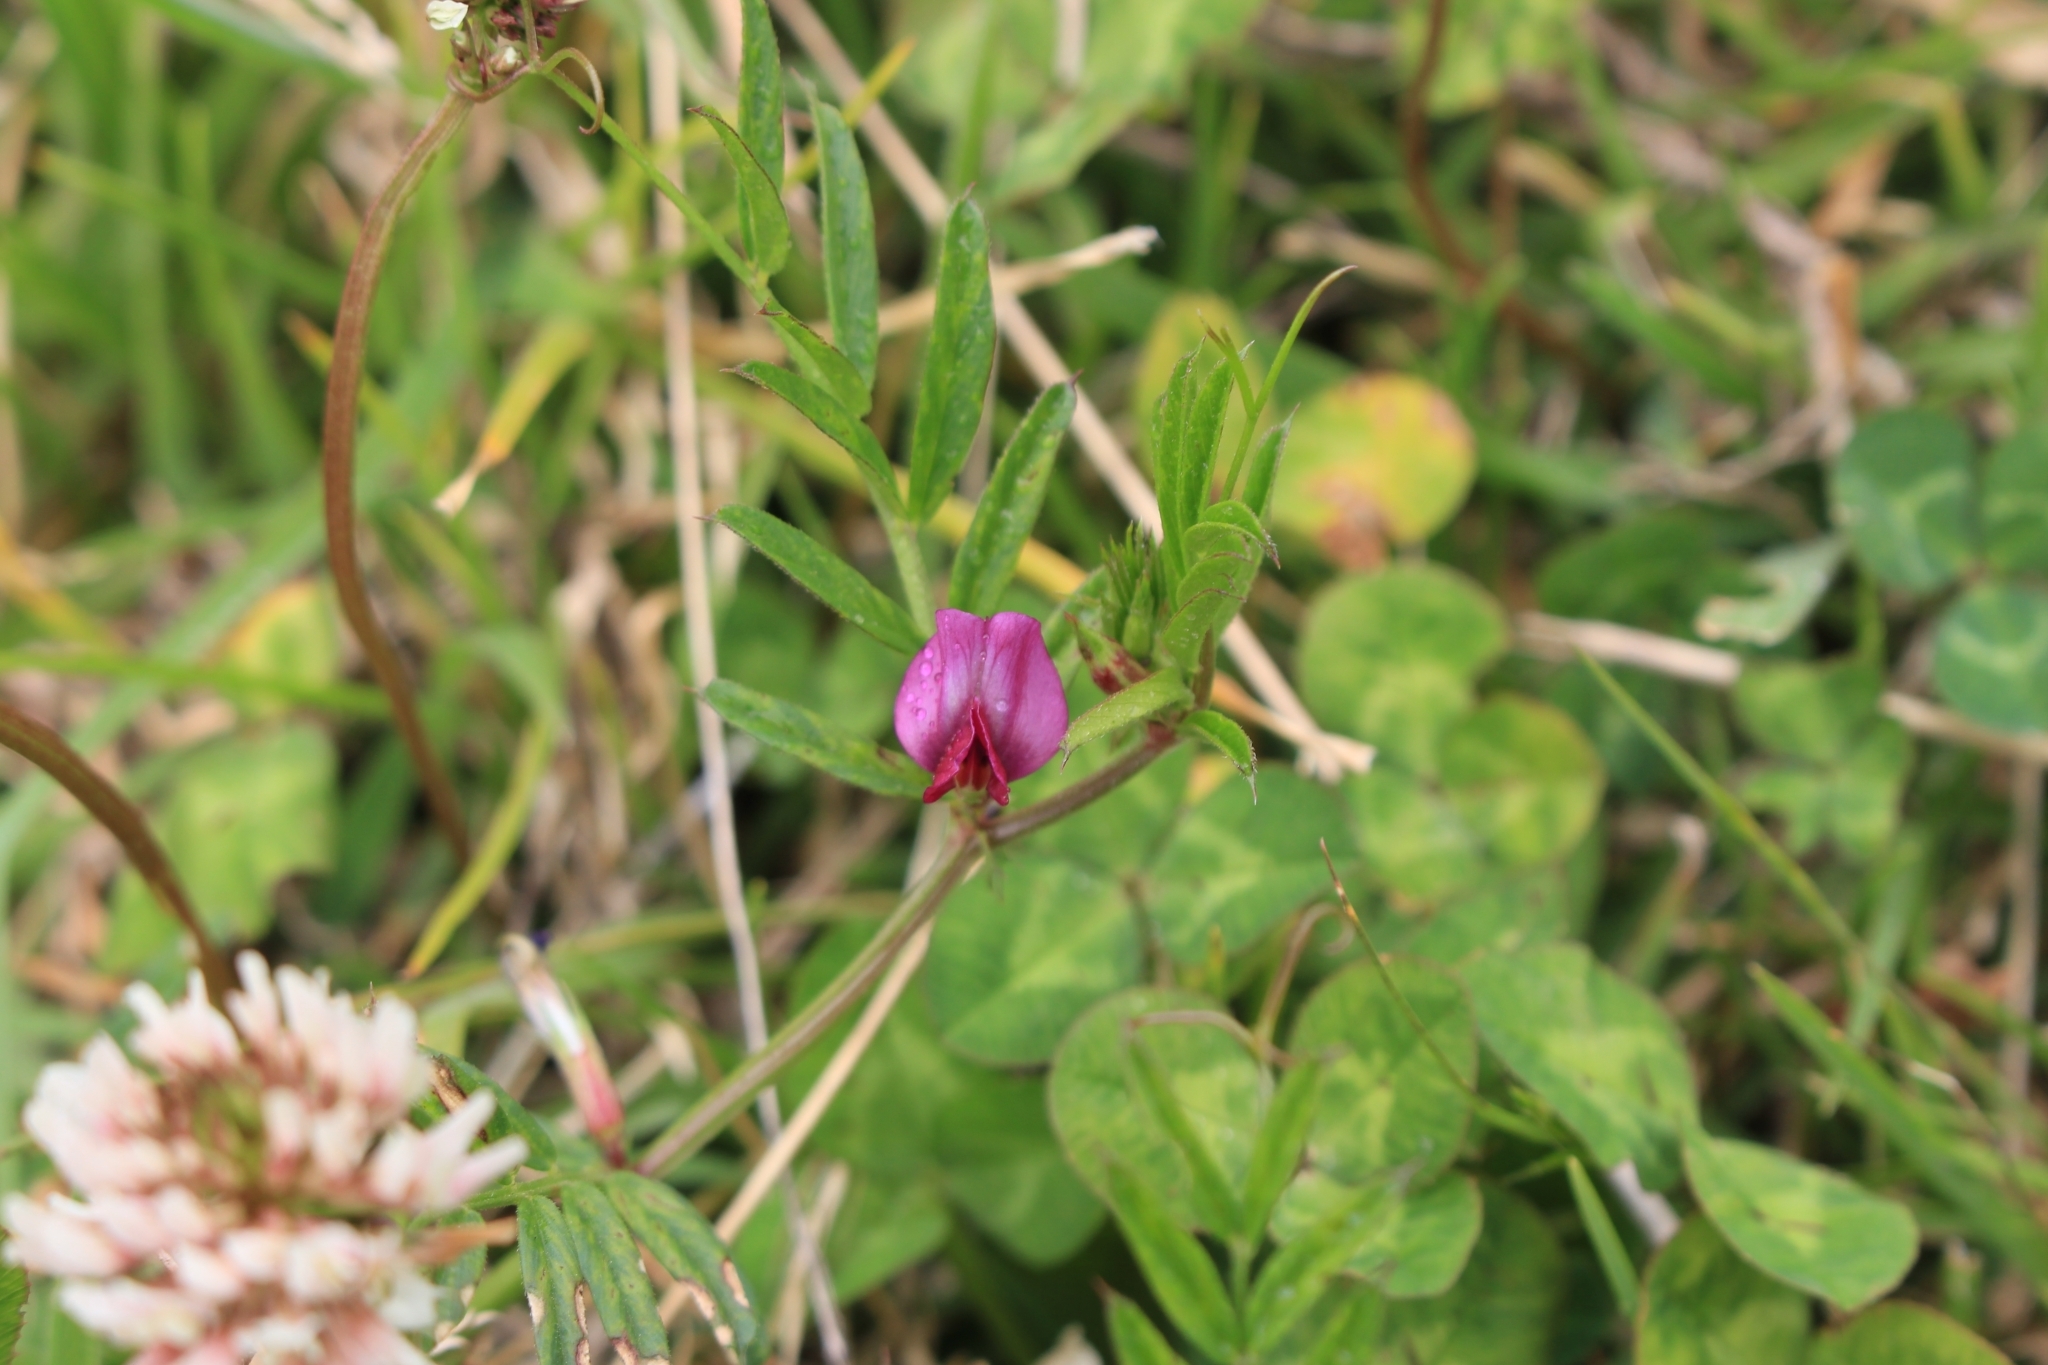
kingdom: Plantae
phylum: Tracheophyta
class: Magnoliopsida
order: Fabales
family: Fabaceae
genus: Vicia
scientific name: Vicia sativa
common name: Garden vetch
